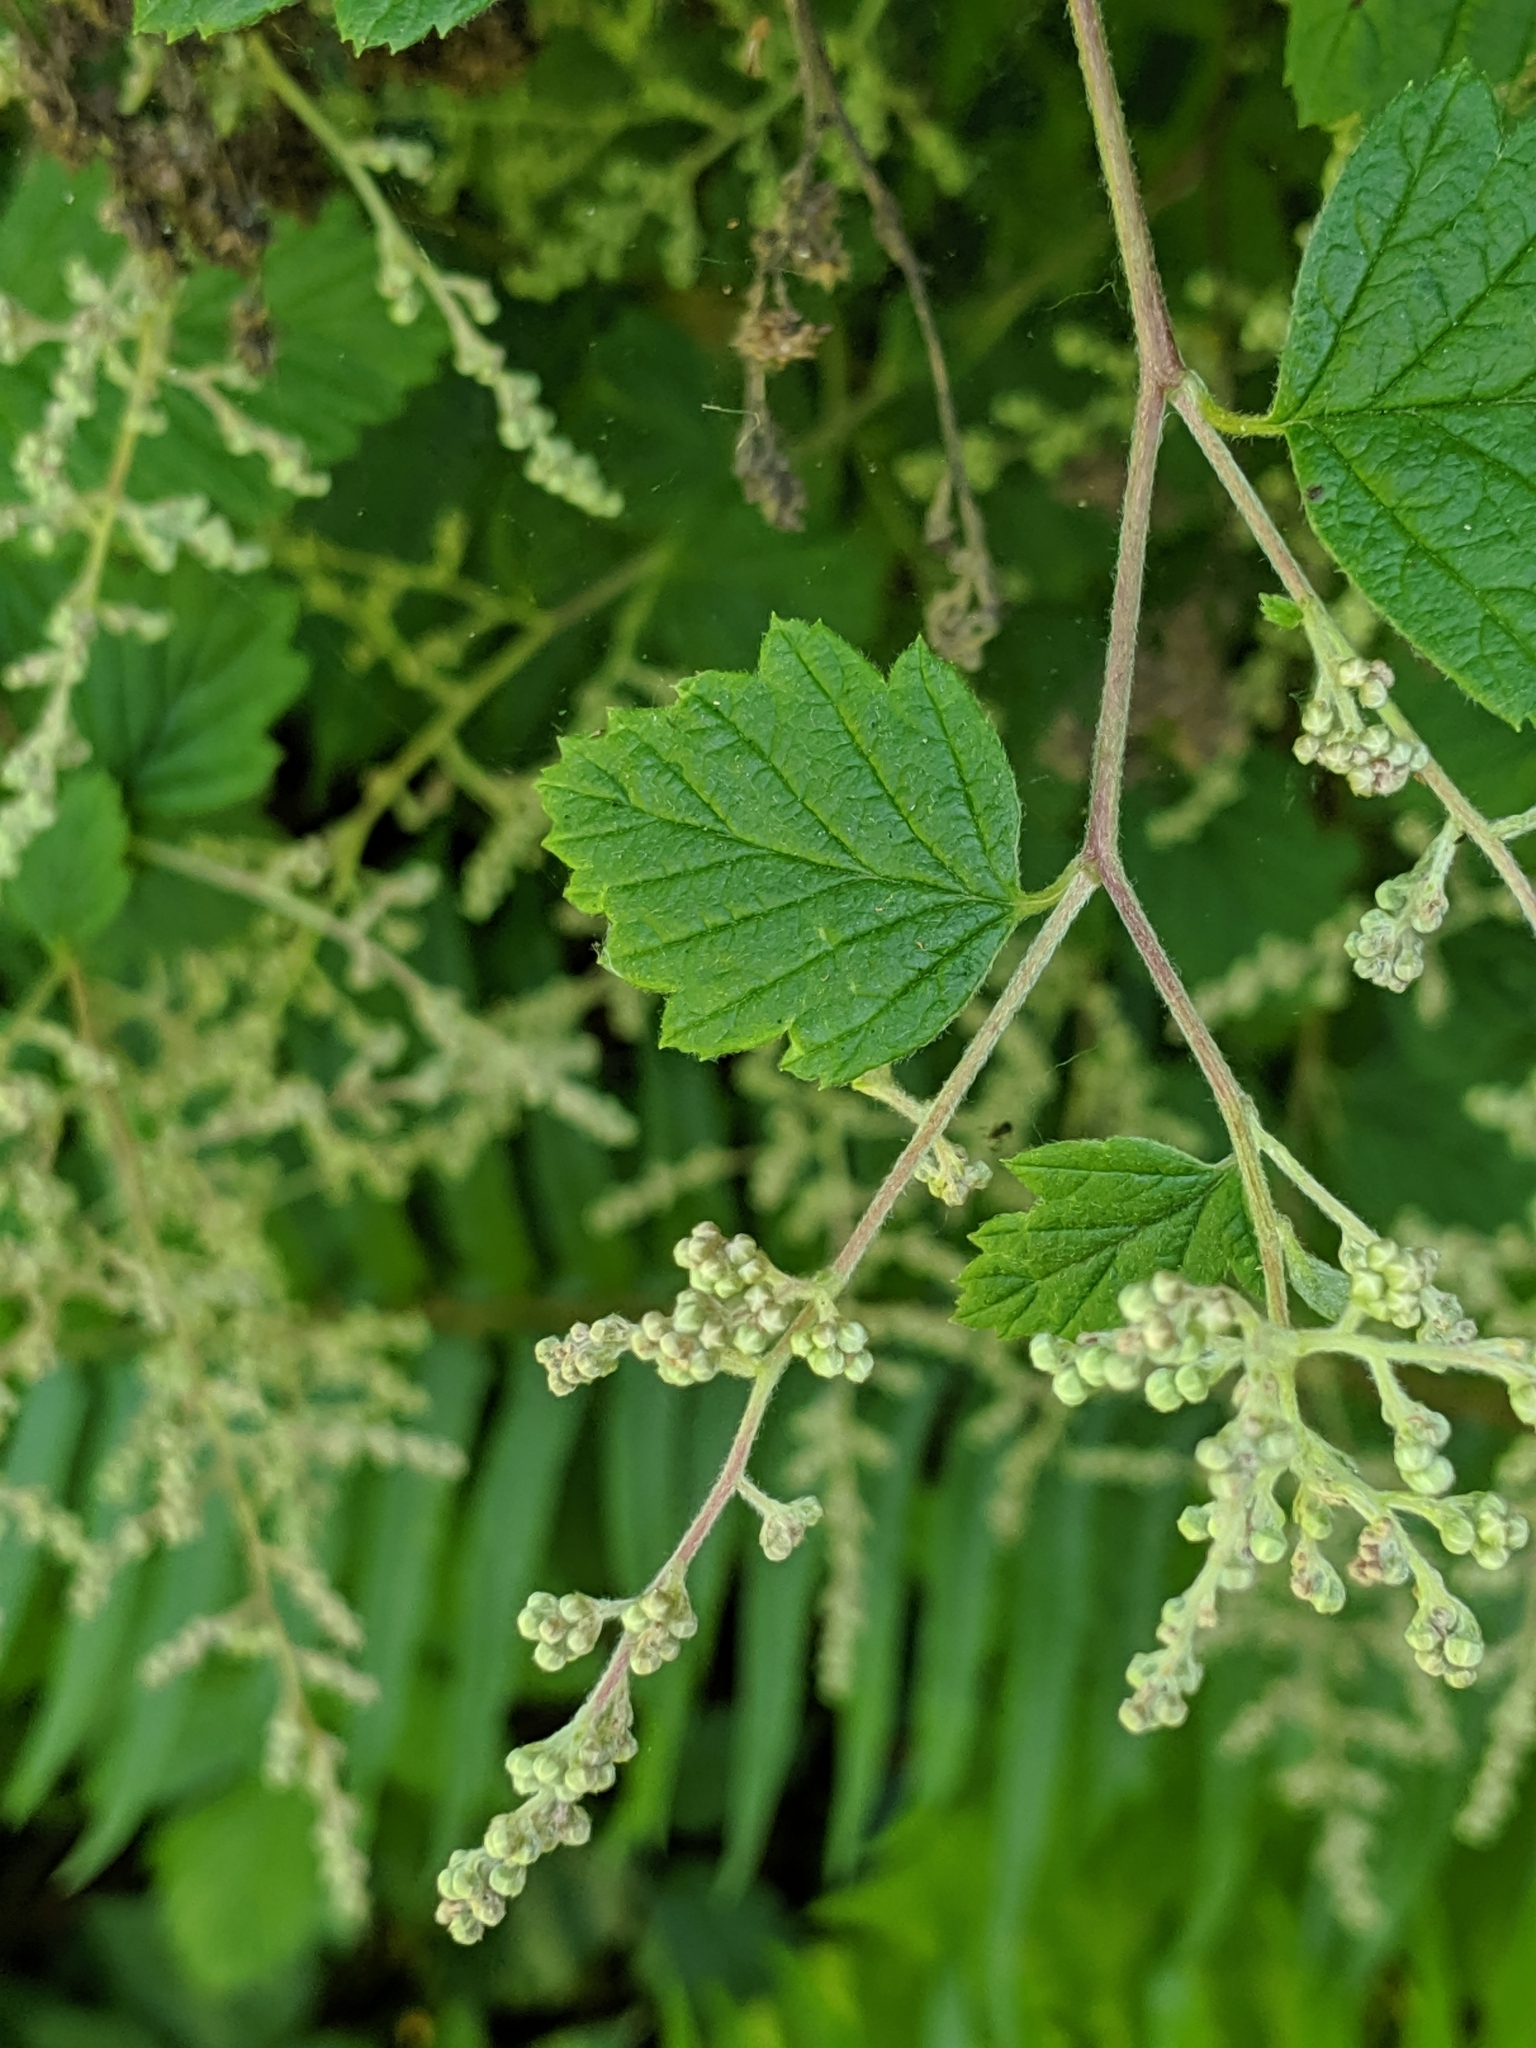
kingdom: Plantae
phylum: Tracheophyta
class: Magnoliopsida
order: Rosales
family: Rosaceae
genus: Holodiscus
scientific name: Holodiscus discolor
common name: Oceanspray
